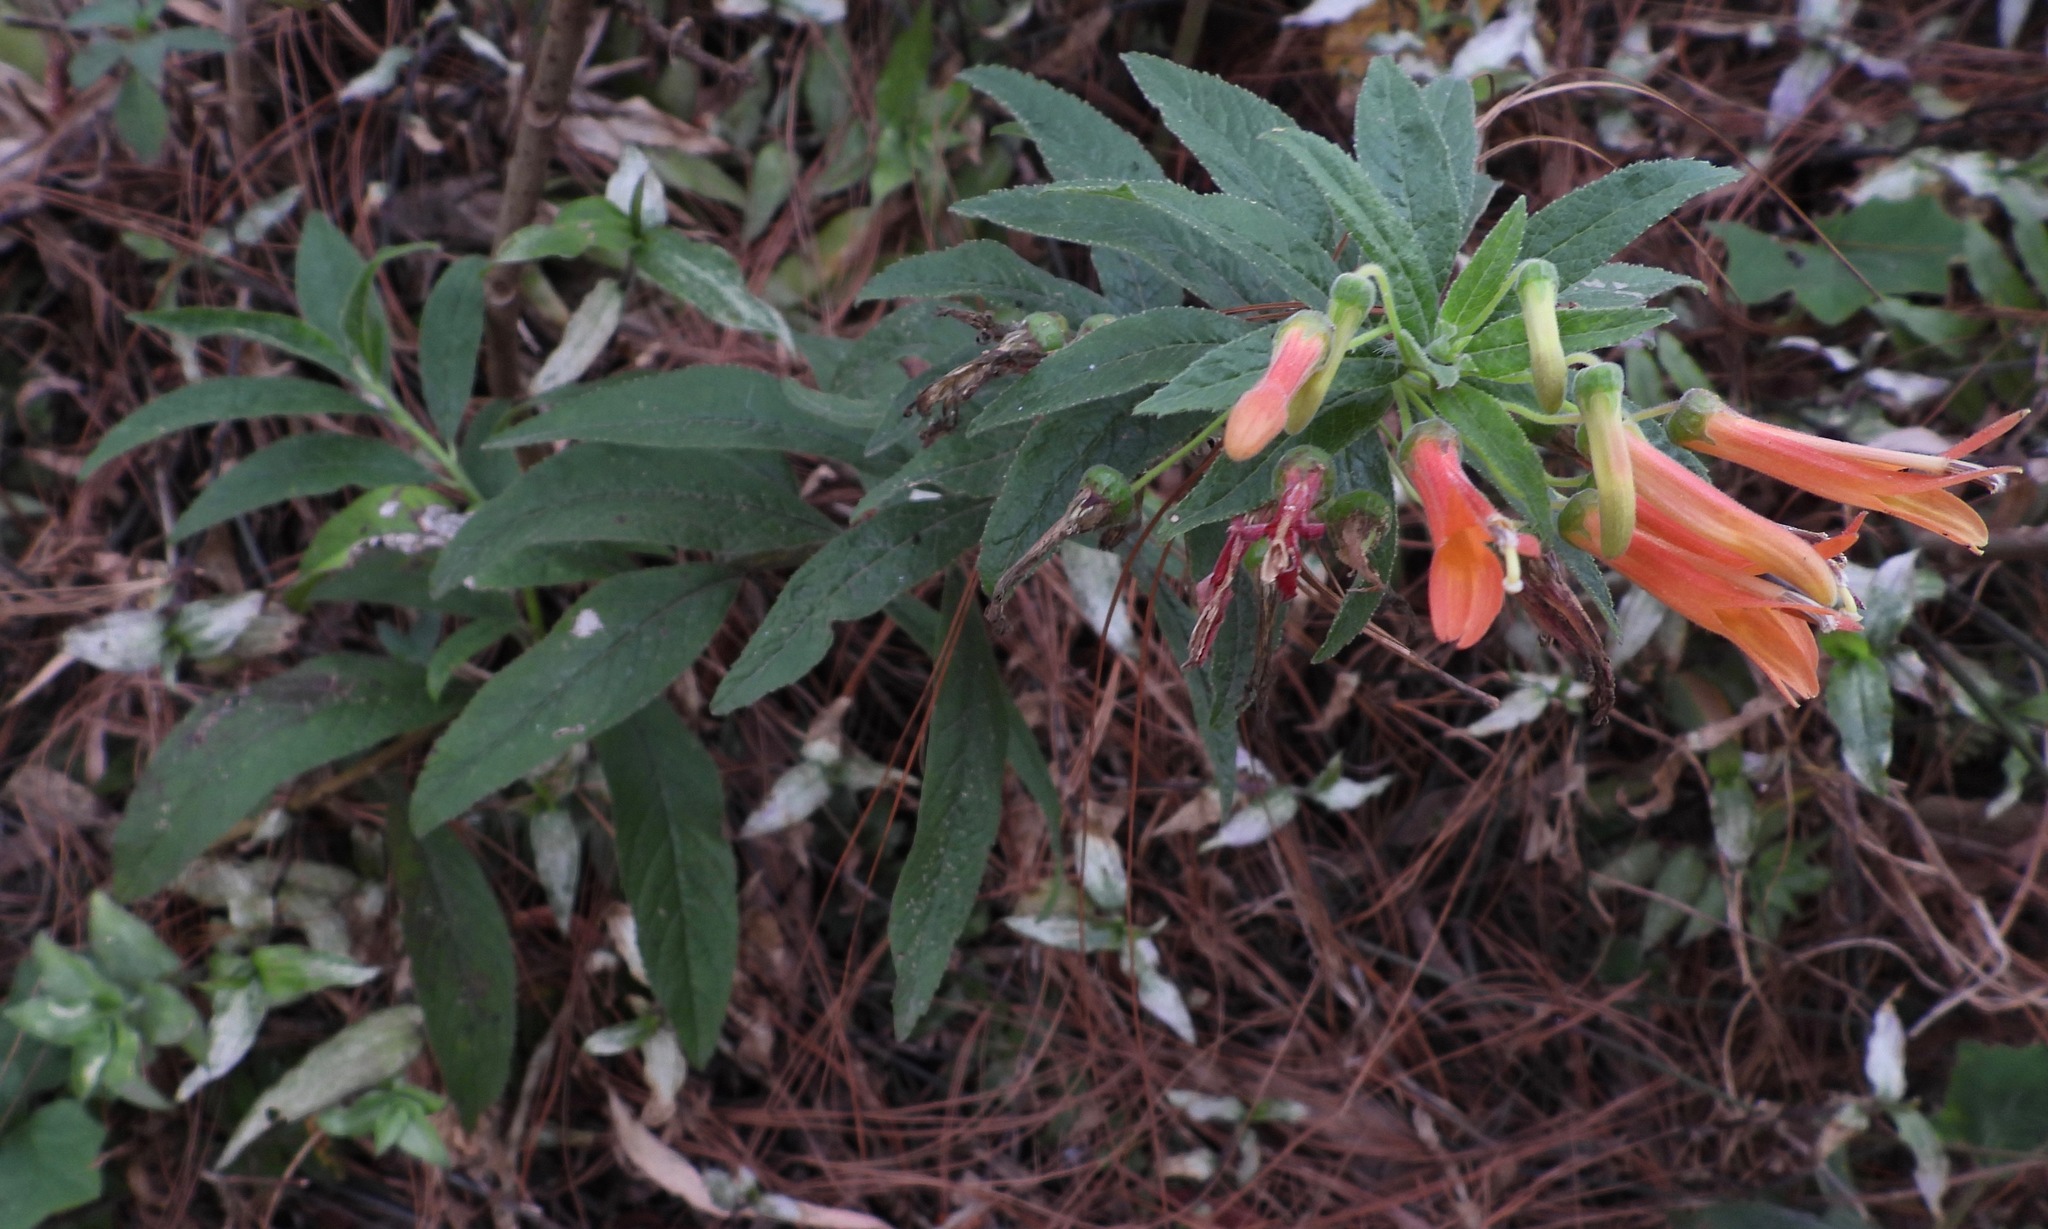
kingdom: Plantae
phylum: Tracheophyta
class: Magnoliopsida
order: Asterales
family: Campanulaceae
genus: Lobelia
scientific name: Lobelia laxiflora
